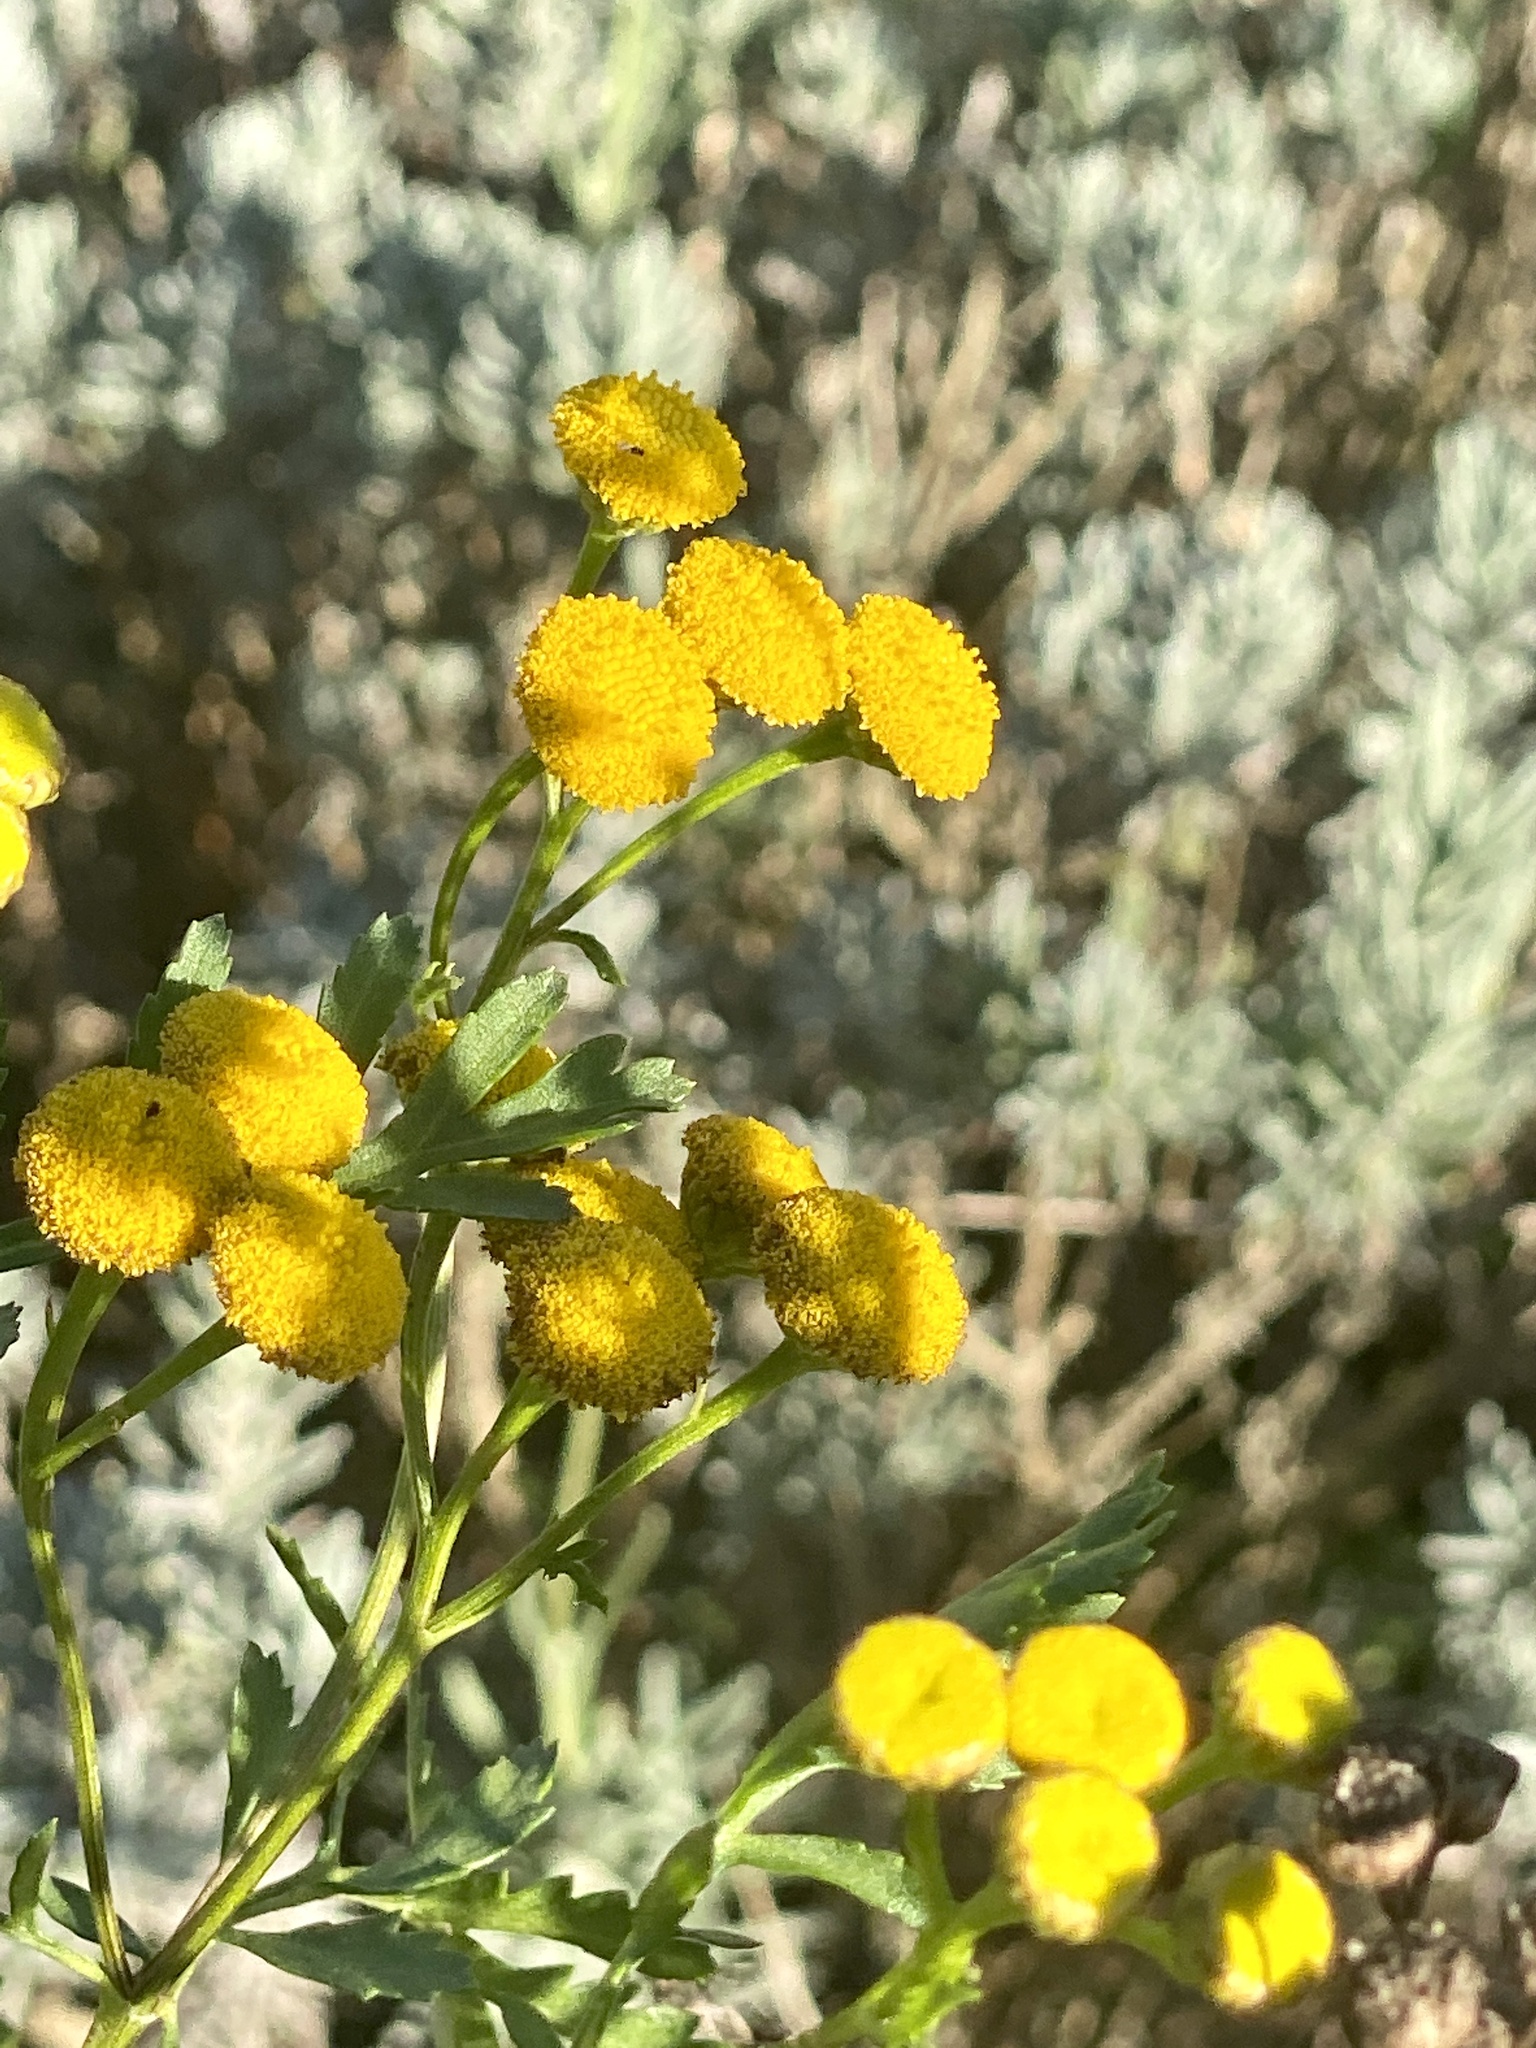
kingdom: Plantae
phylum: Tracheophyta
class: Magnoliopsida
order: Asterales
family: Asteraceae
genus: Tanacetum
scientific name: Tanacetum vulgare
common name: Common tansy
